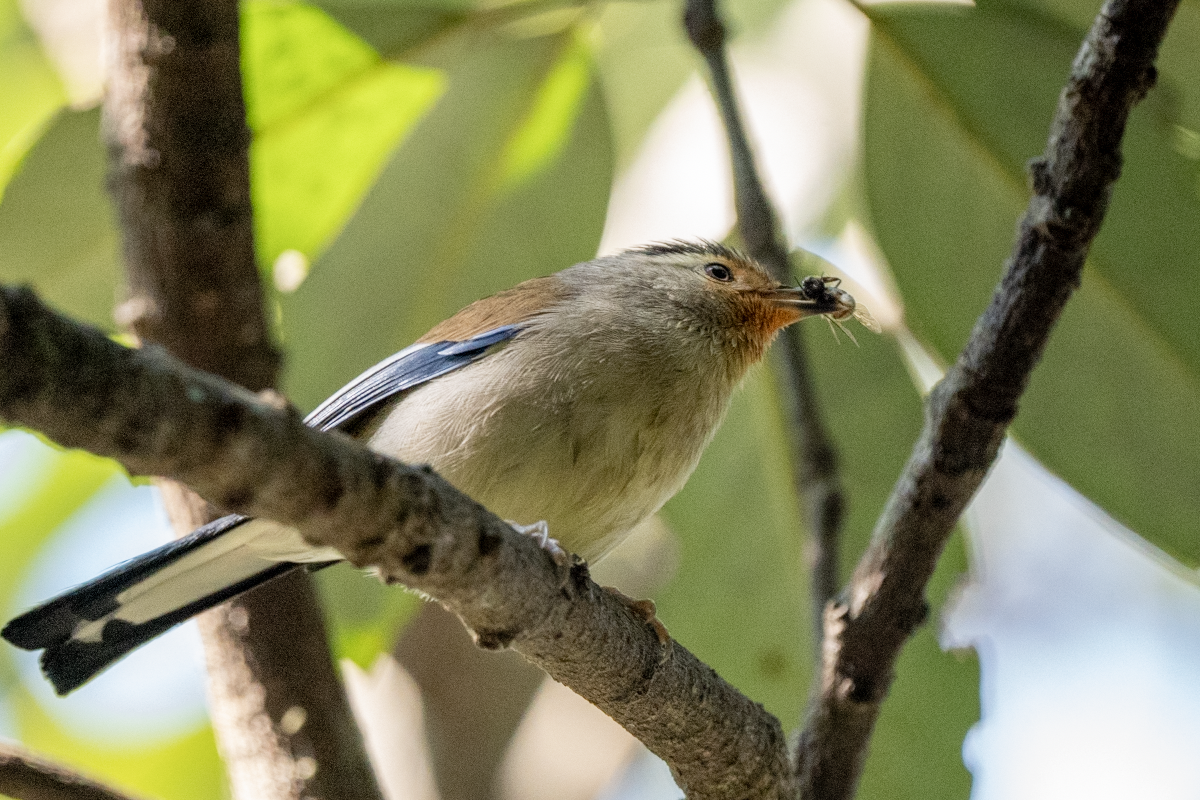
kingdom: Animalia
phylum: Chordata
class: Aves
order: Passeriformes
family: Leiothrichidae
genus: Minla
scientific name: Minla cyanouroptera
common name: Blue-winged minla
